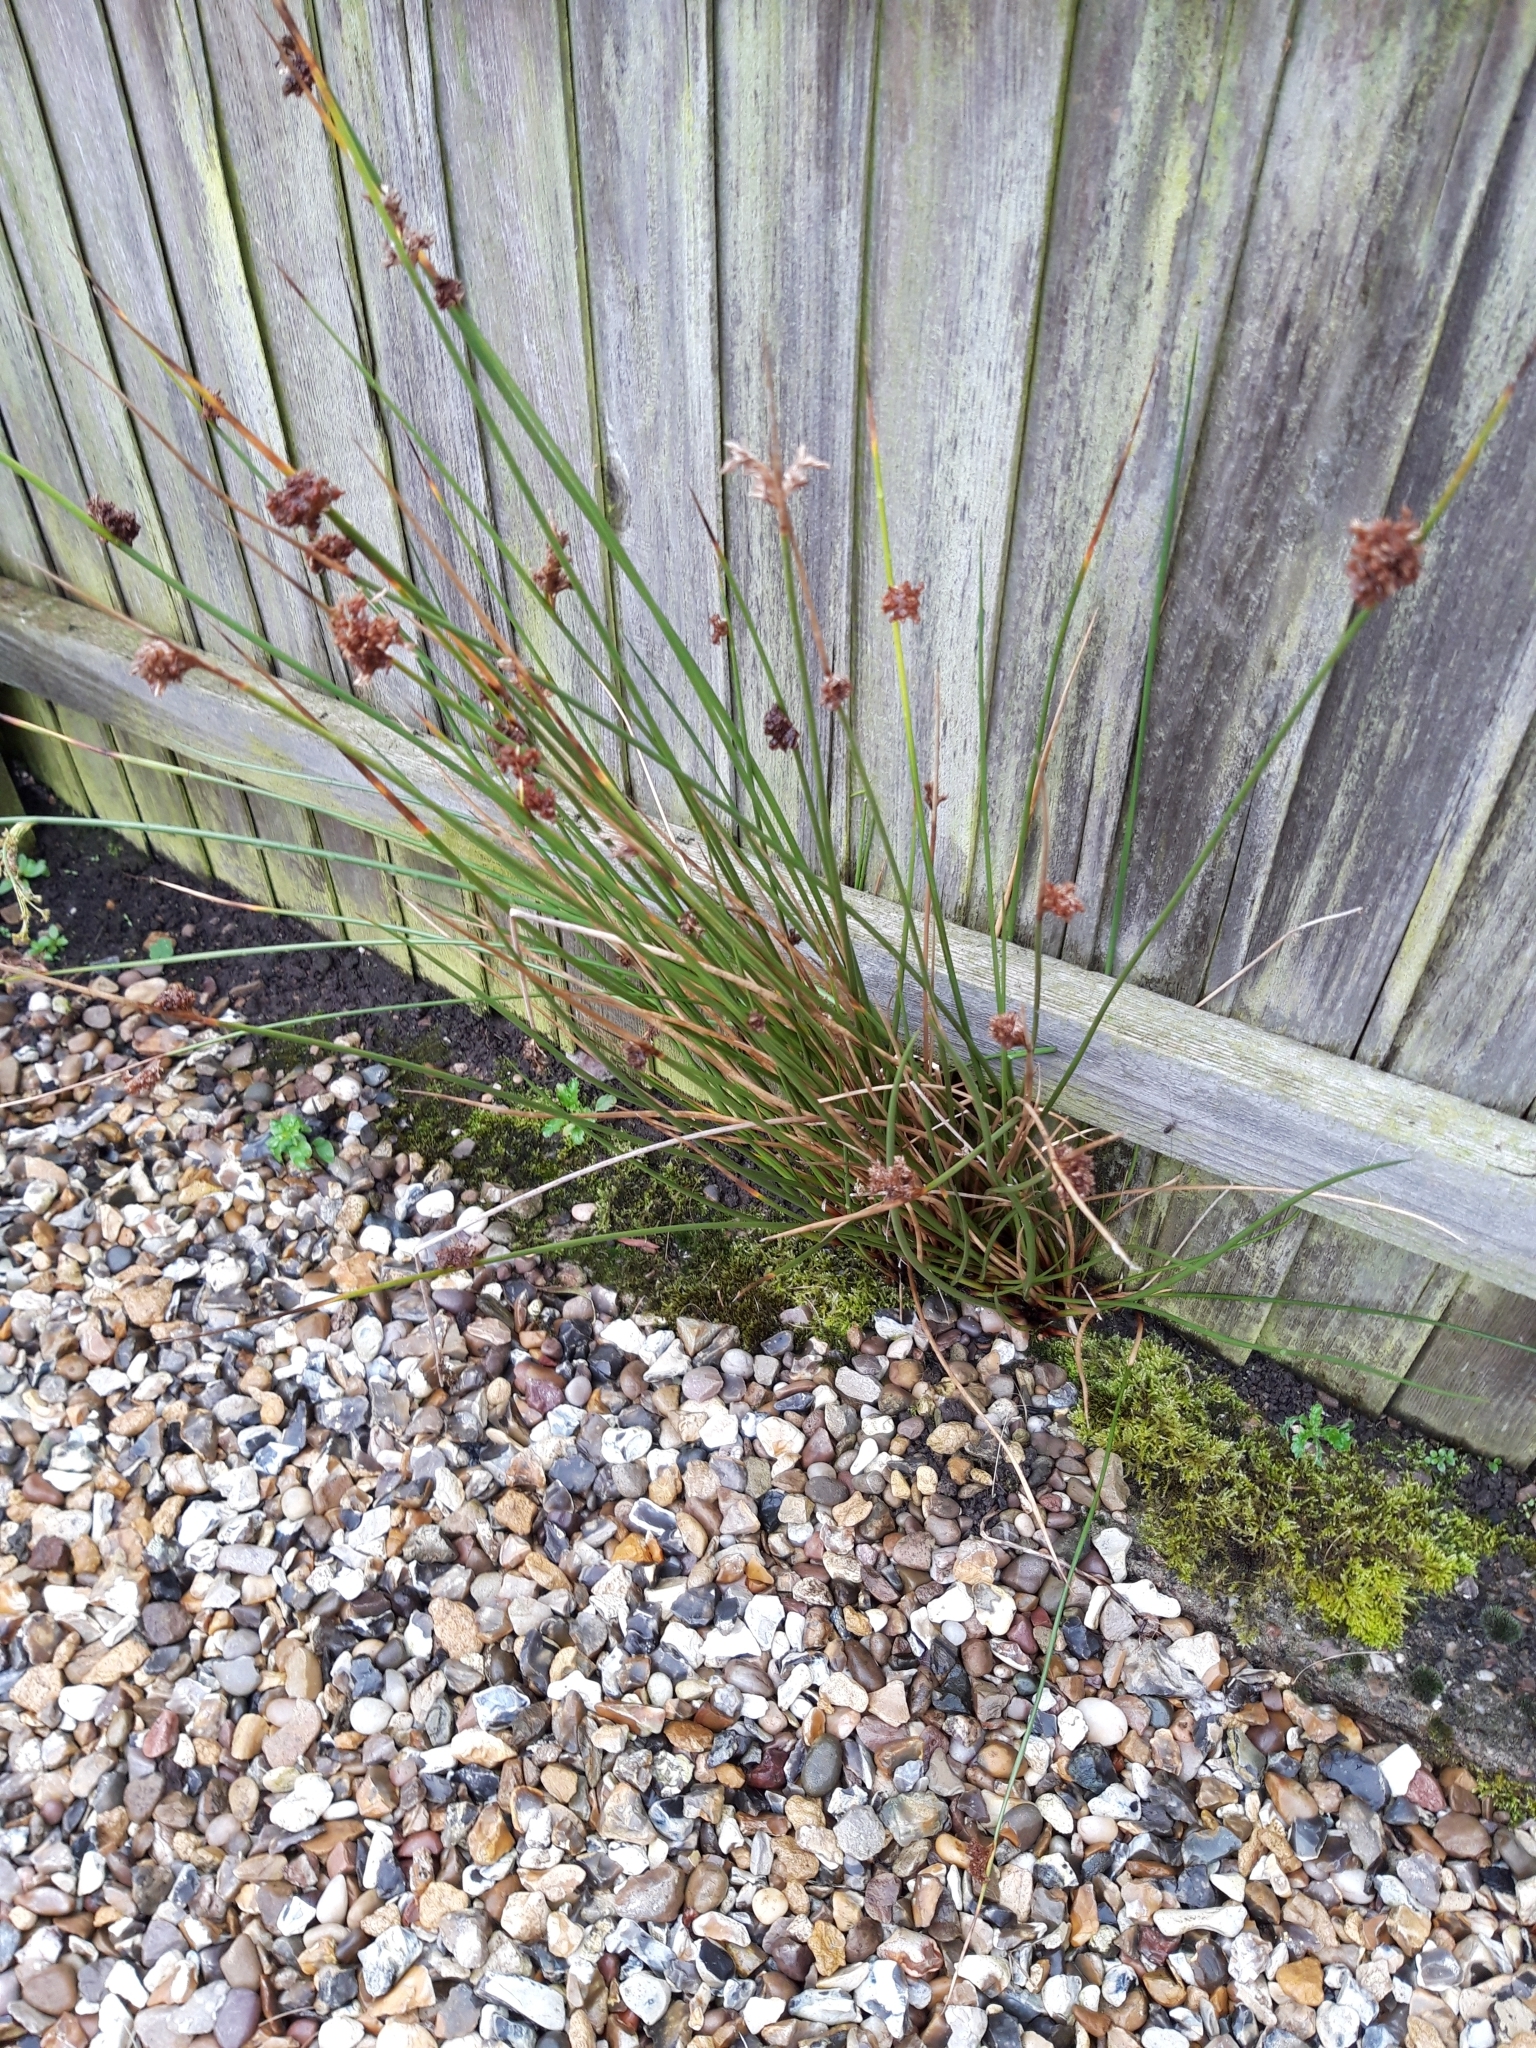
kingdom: Plantae
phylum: Tracheophyta
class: Liliopsida
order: Poales
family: Juncaceae
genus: Juncus
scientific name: Juncus effusus
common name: Soft rush
